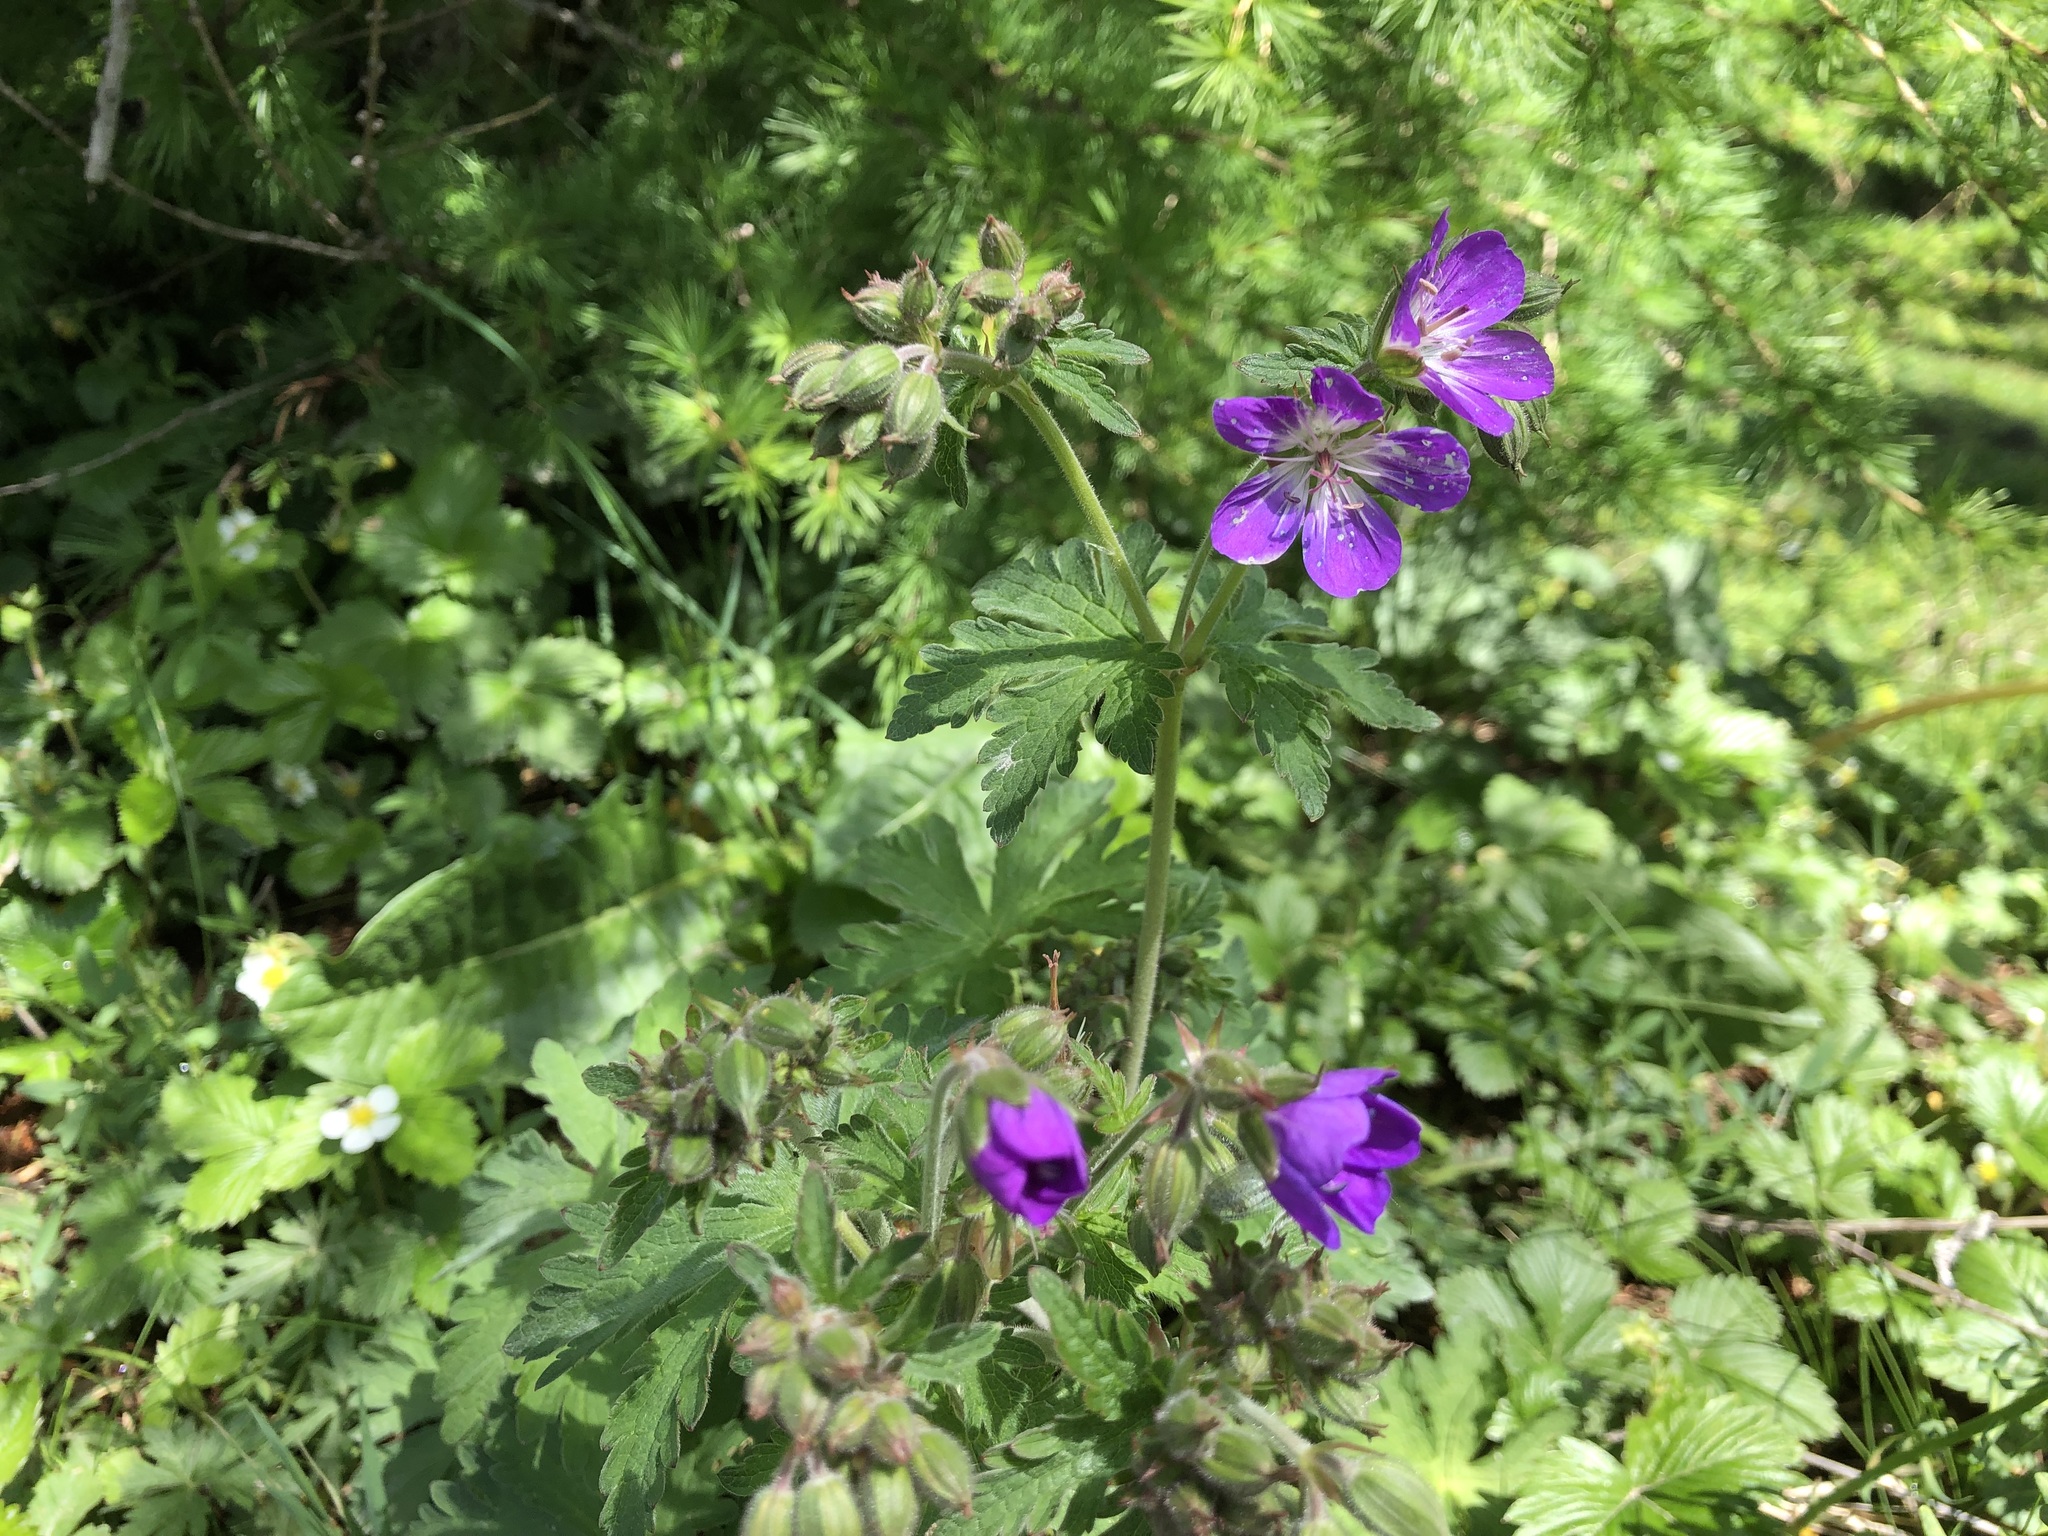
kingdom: Plantae
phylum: Tracheophyta
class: Magnoliopsida
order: Geraniales
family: Geraniaceae
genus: Geranium
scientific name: Geranium sylvaticum
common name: Wood crane's-bill
